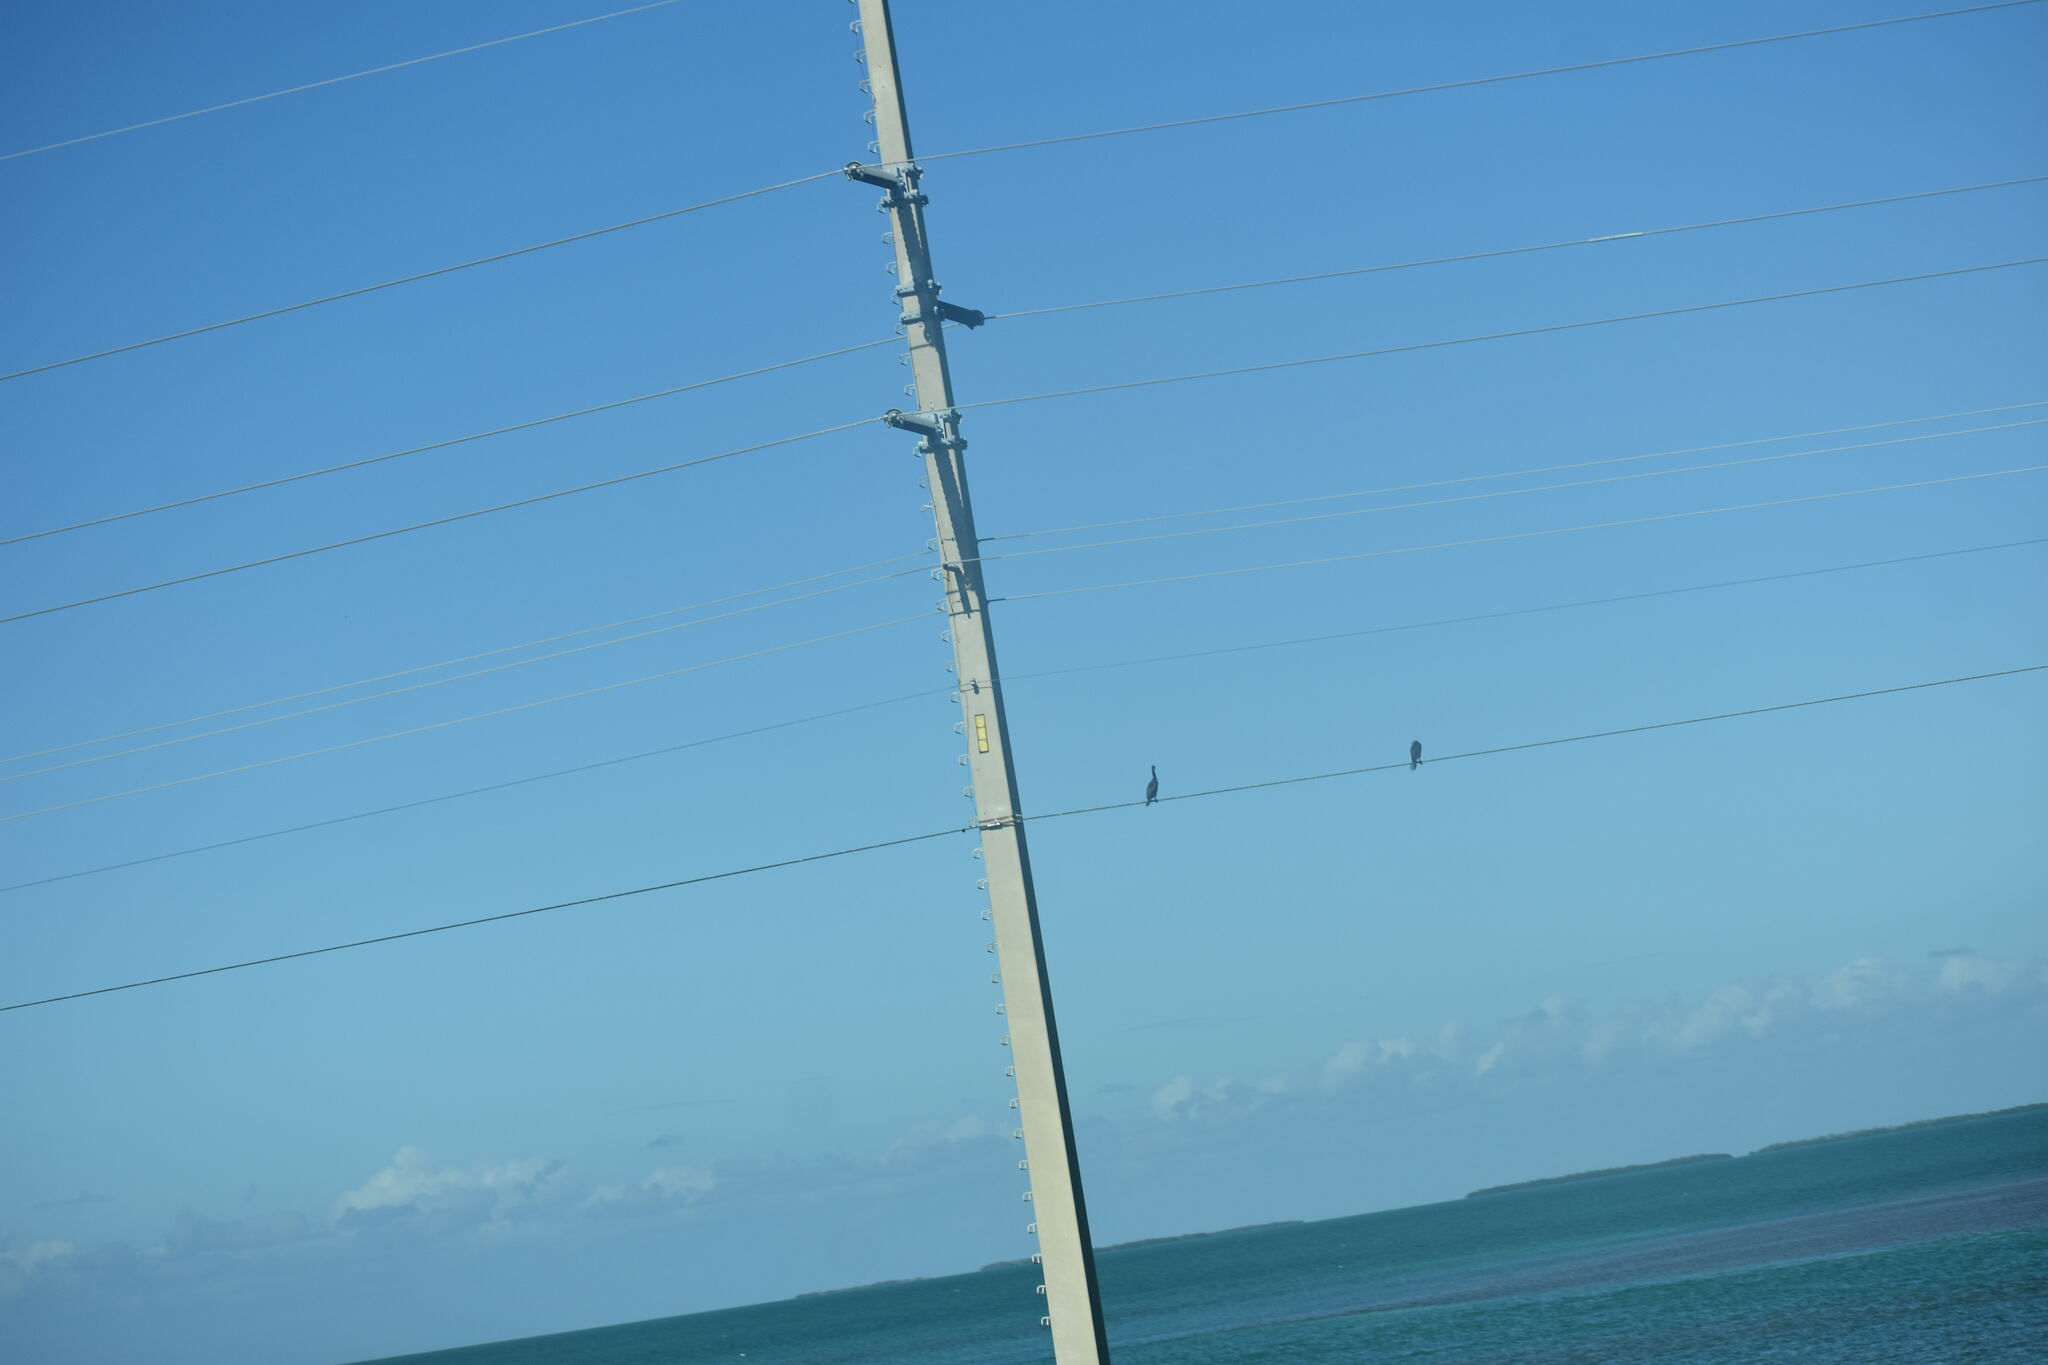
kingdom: Animalia
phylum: Chordata
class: Aves
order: Suliformes
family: Phalacrocoracidae
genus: Phalacrocorax
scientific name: Phalacrocorax auritus
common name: Double-crested cormorant
